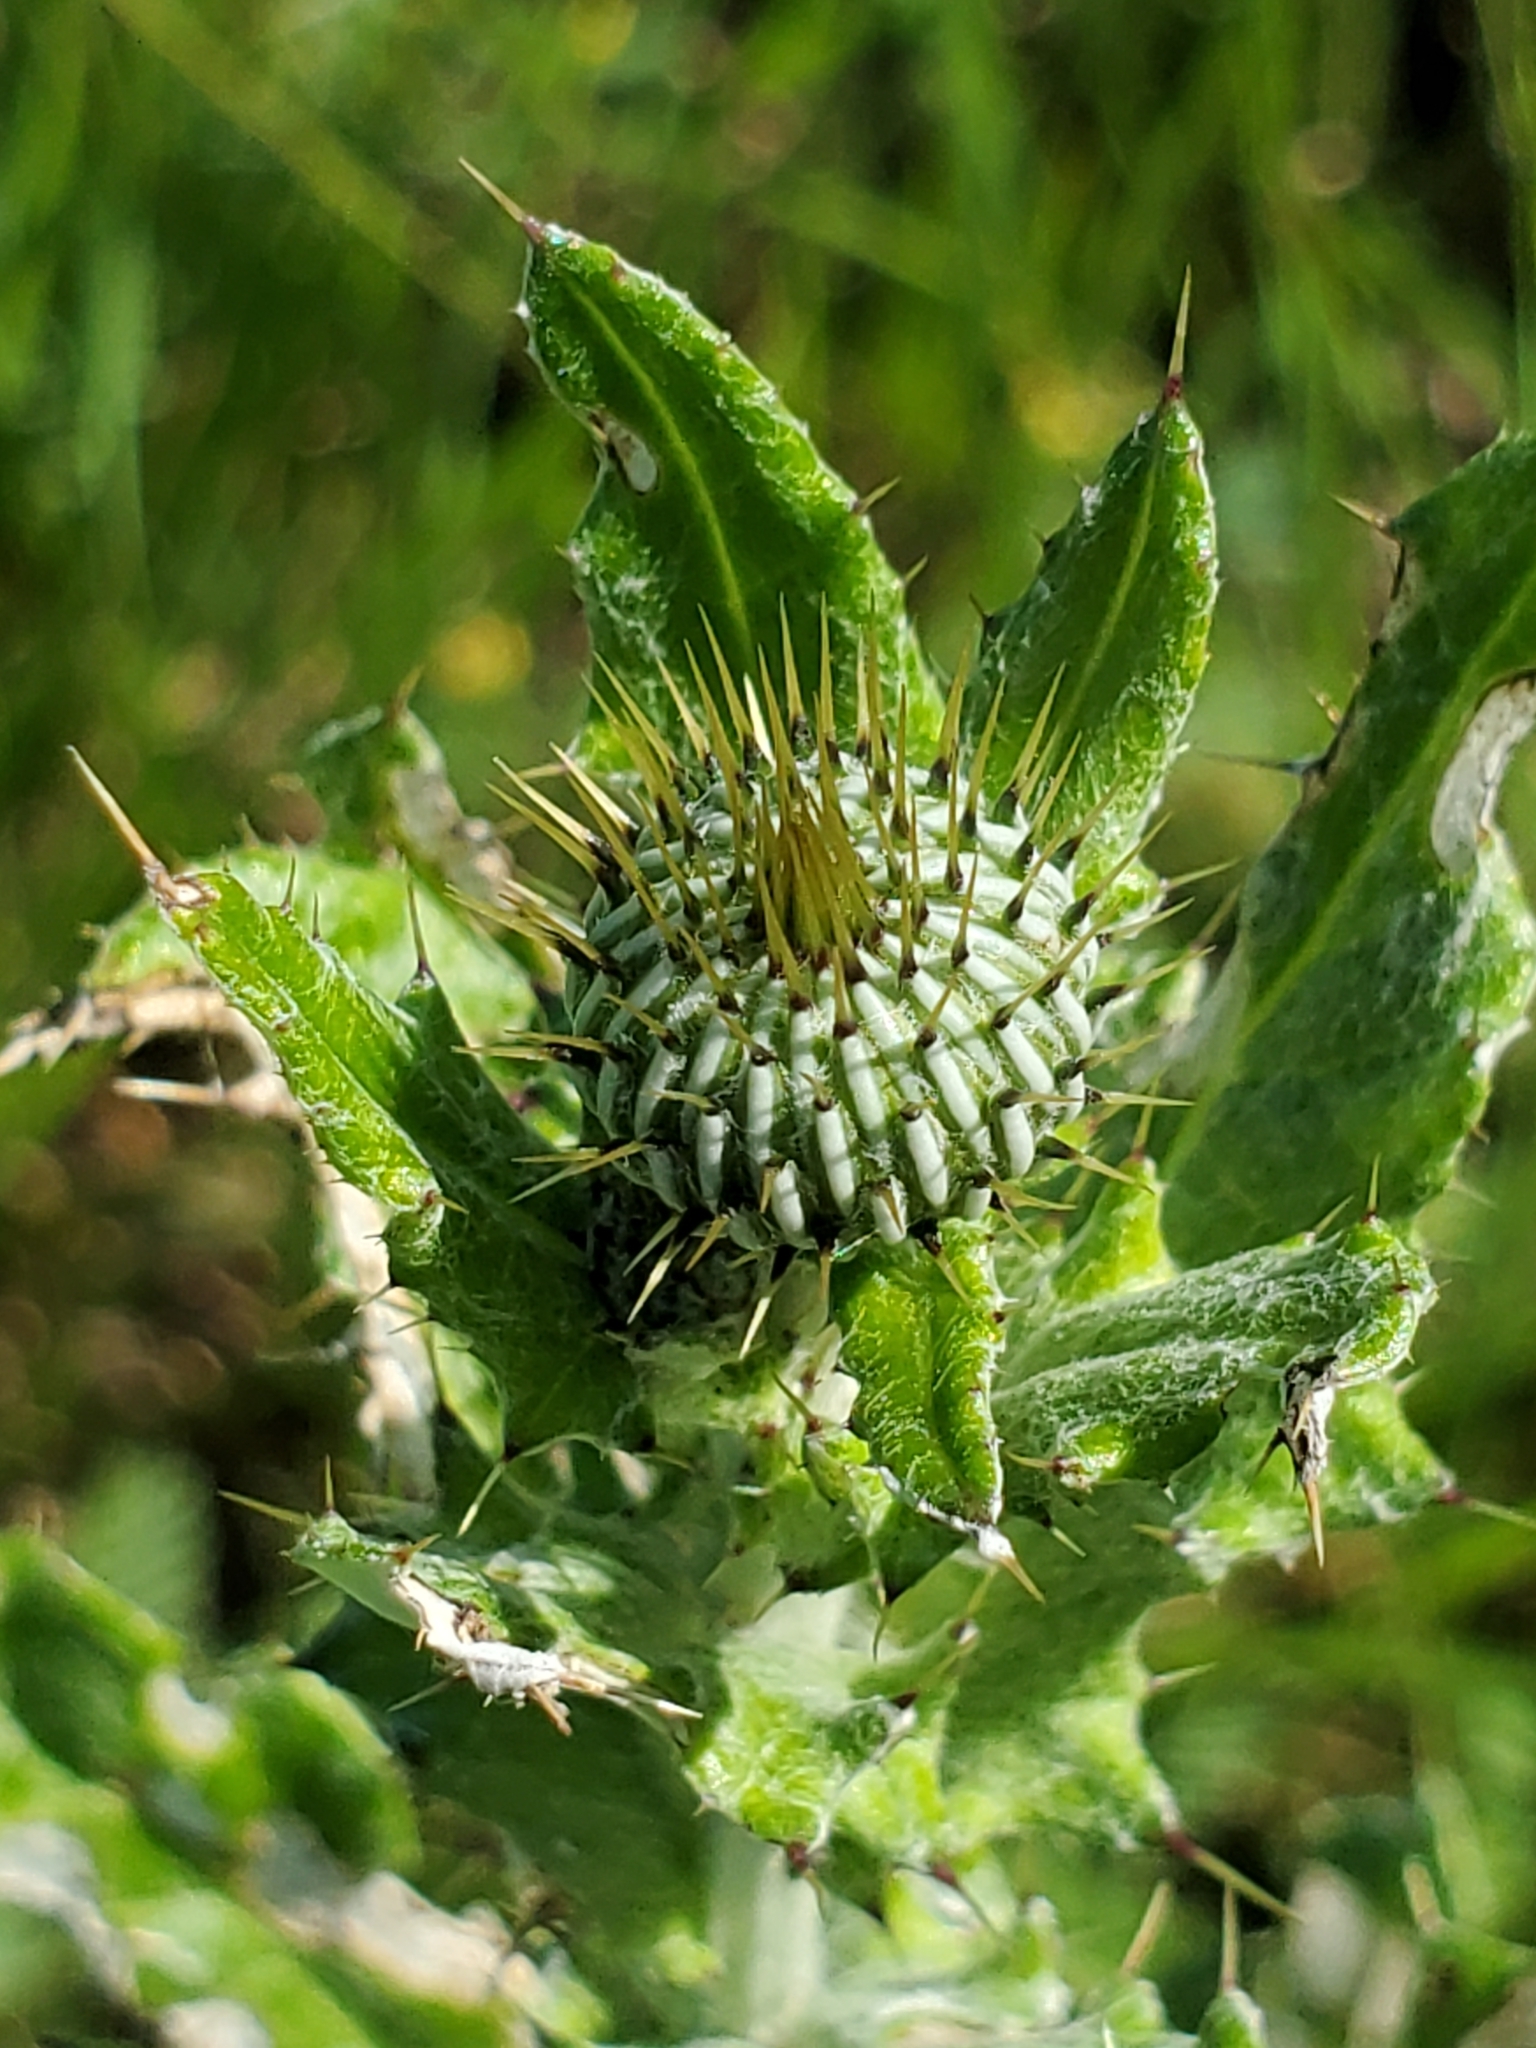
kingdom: Plantae
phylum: Tracheophyta
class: Magnoliopsida
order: Asterales
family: Asteraceae
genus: Cirsium
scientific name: Cirsium texanum
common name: Texas purple thistle
